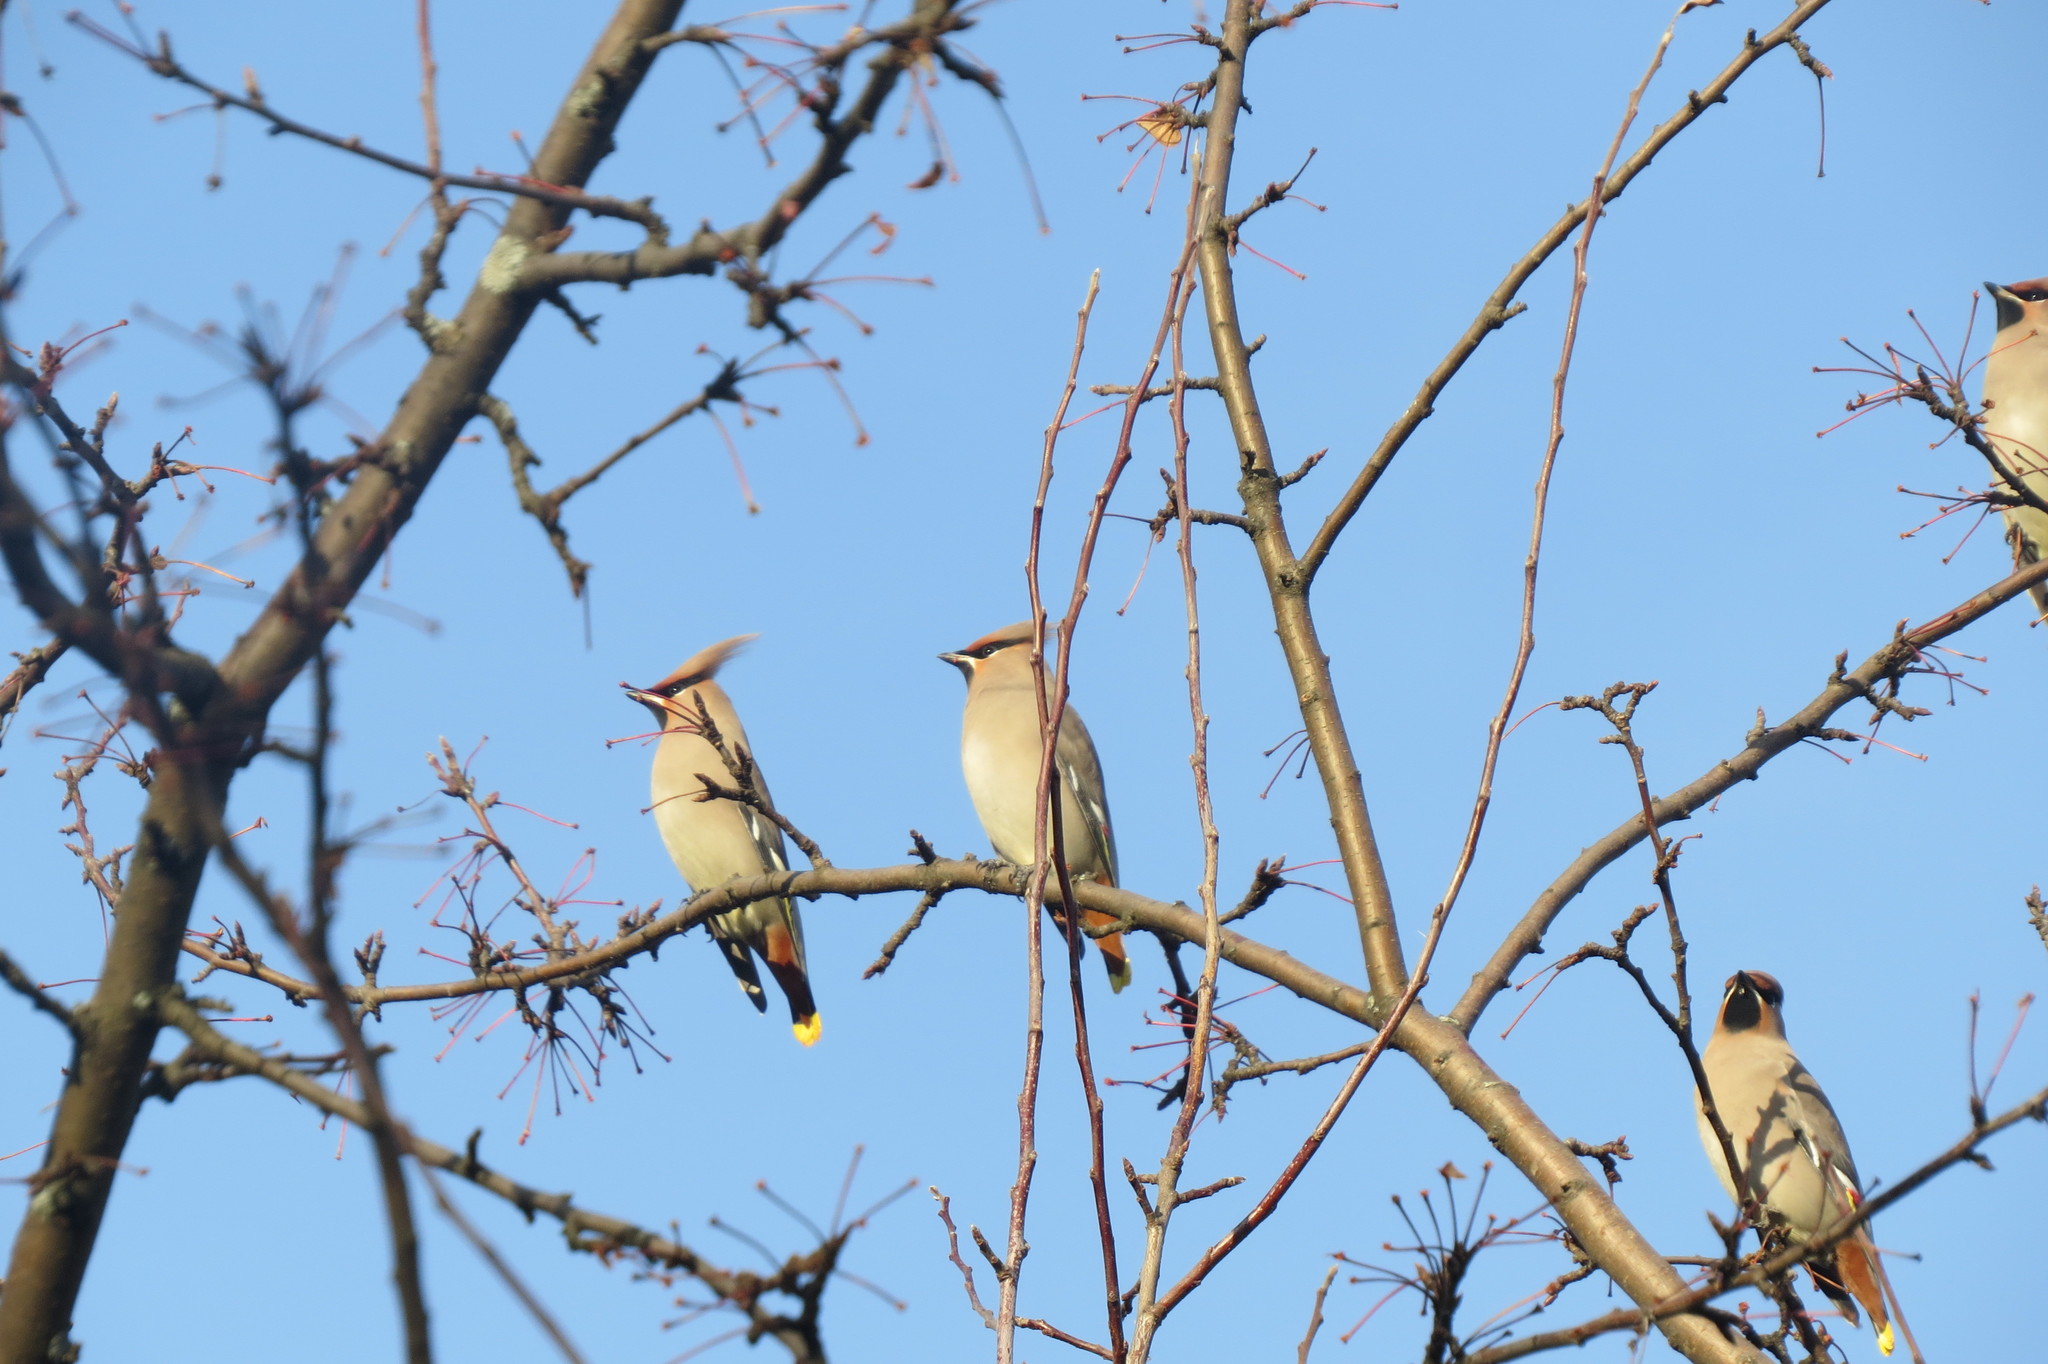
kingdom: Animalia
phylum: Chordata
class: Aves
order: Passeriformes
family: Bombycillidae
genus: Bombycilla
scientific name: Bombycilla garrulus
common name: Bohemian waxwing
